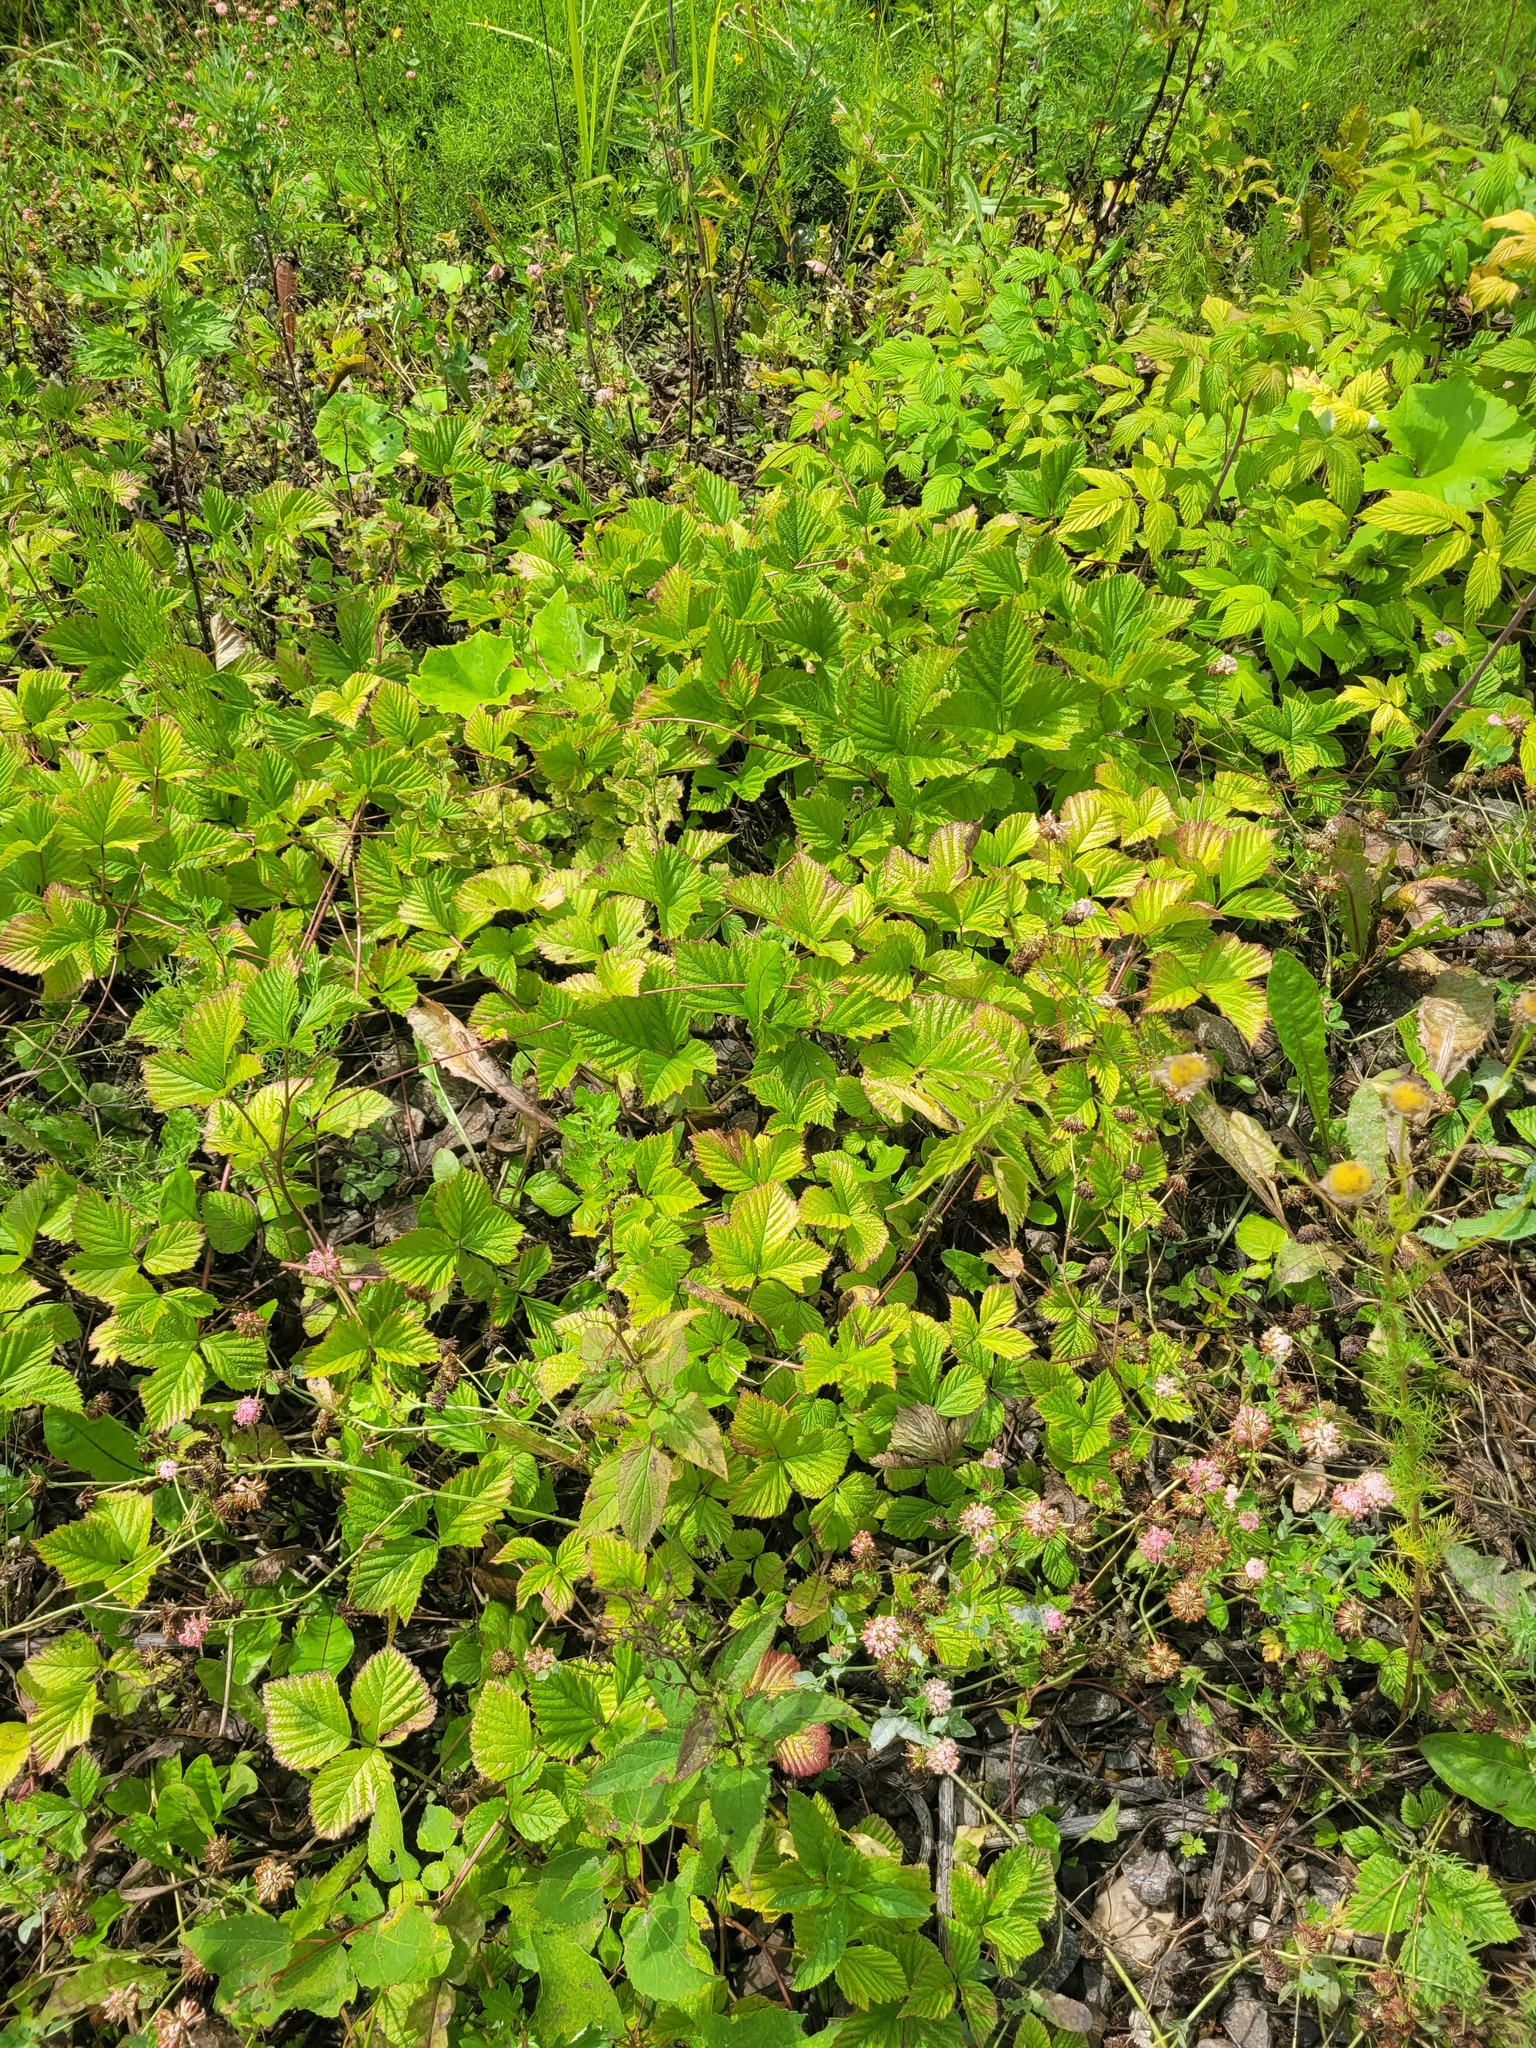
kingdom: Plantae
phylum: Tracheophyta
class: Magnoliopsida
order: Rosales
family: Rosaceae
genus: Rubus
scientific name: Rubus saxatilis
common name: Stone bramble
